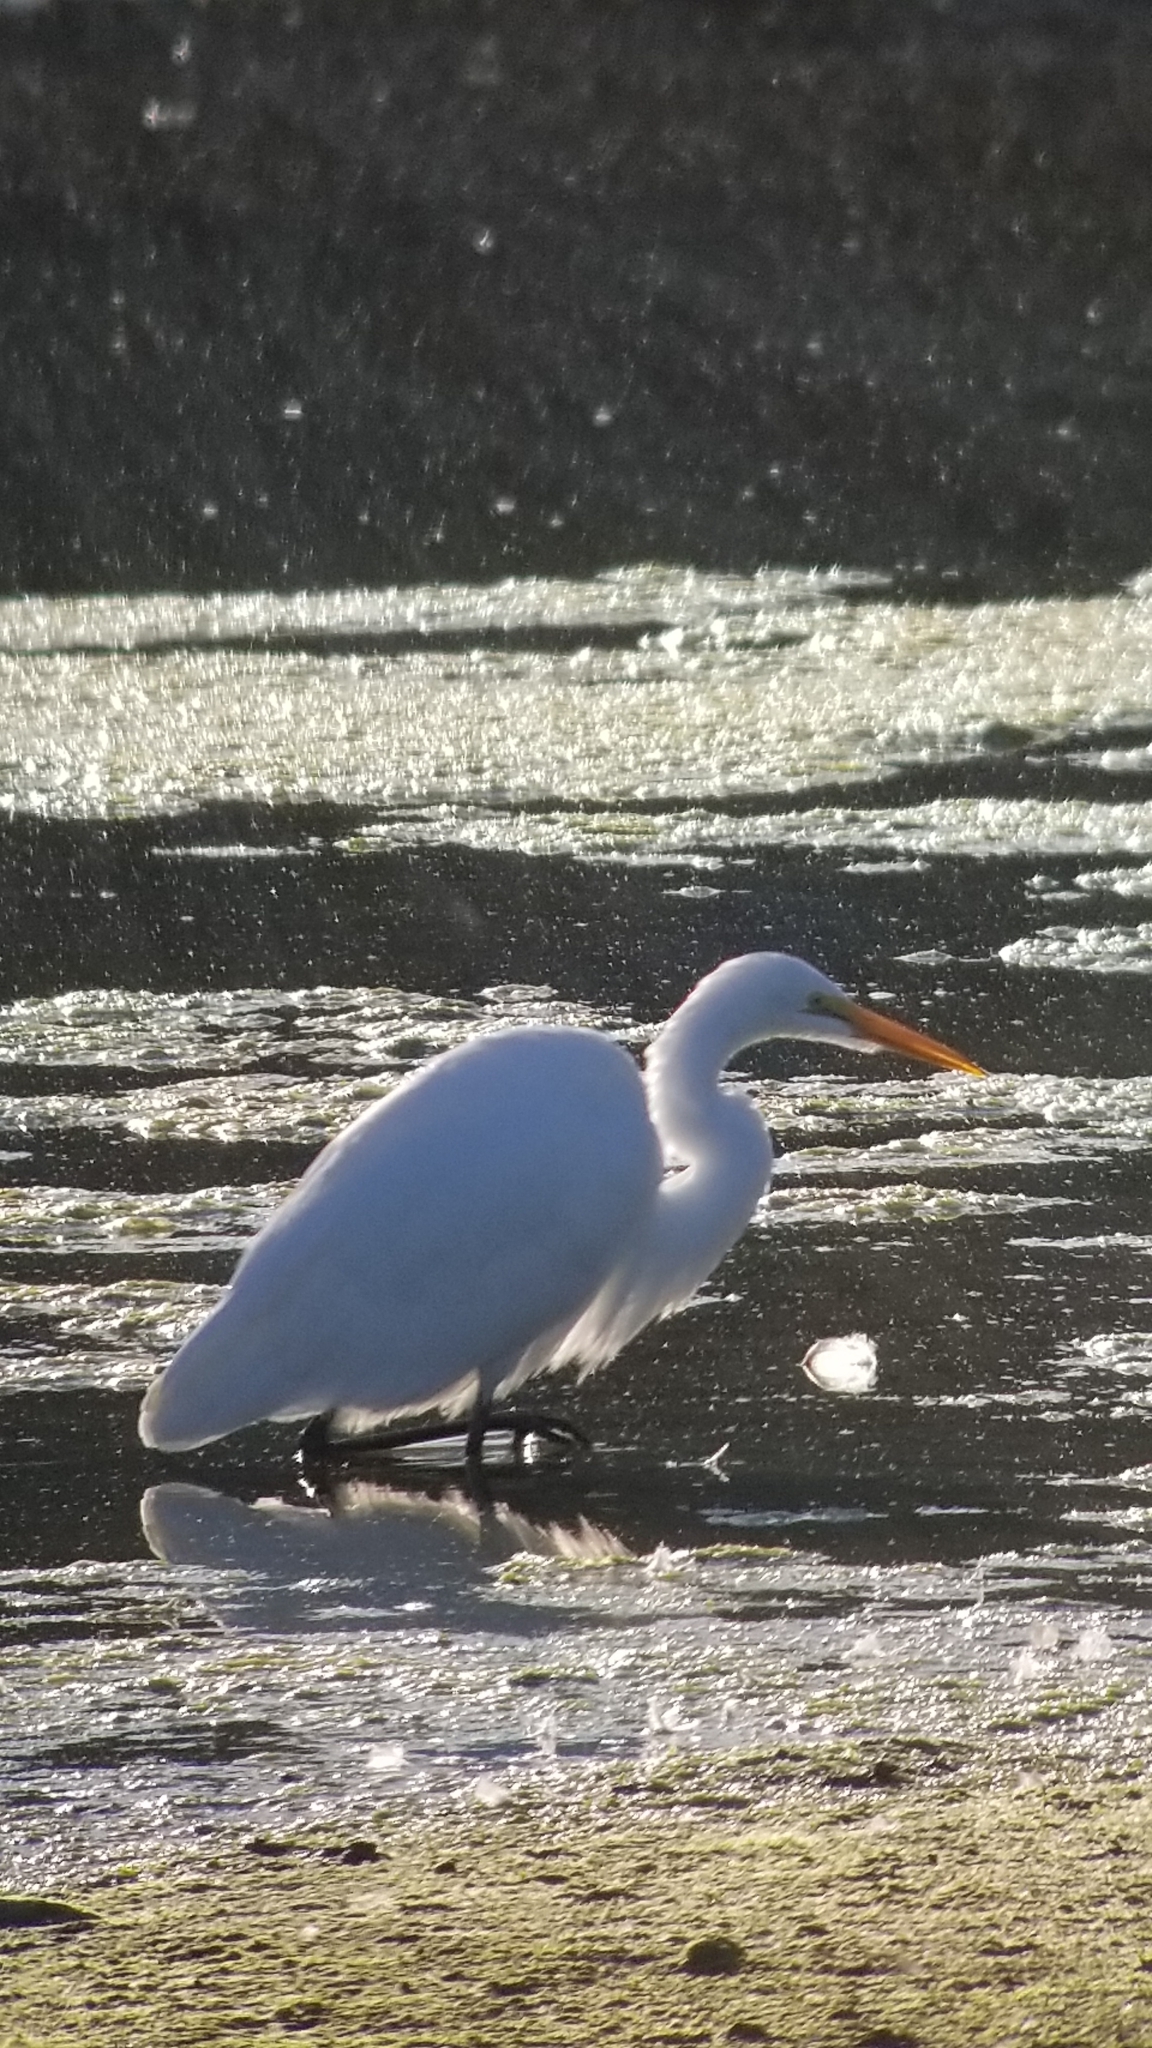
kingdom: Animalia
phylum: Chordata
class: Aves
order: Pelecaniformes
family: Ardeidae
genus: Ardea
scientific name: Ardea alba
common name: Great egret
